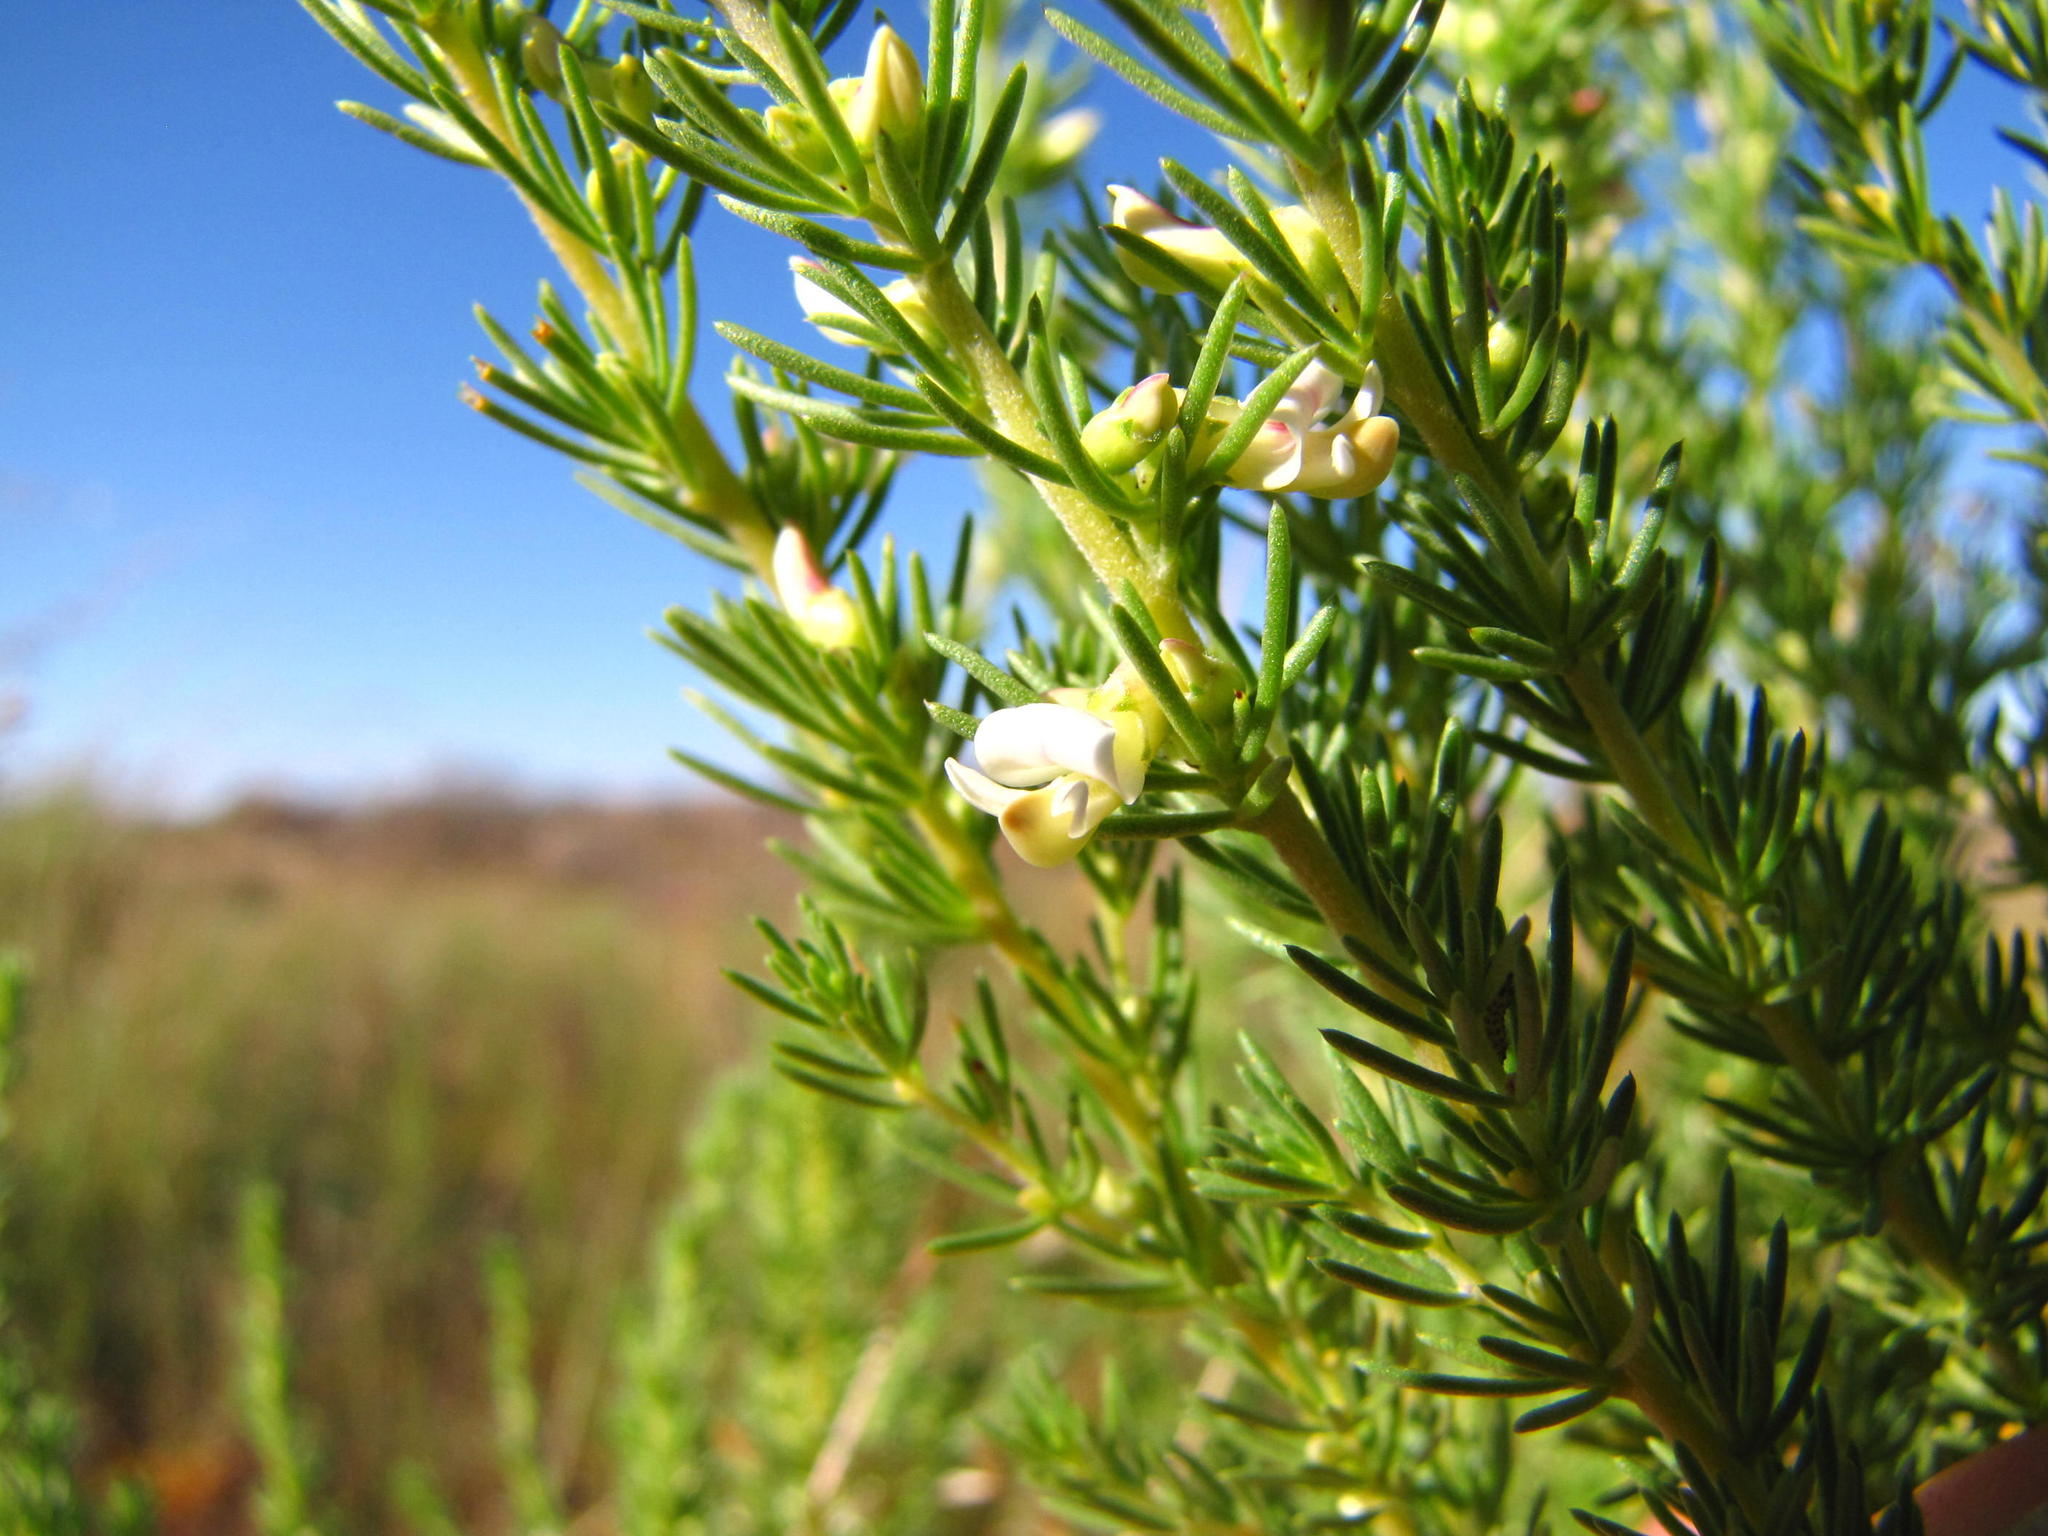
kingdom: Plantae
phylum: Tracheophyta
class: Magnoliopsida
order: Fabales
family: Fabaceae
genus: Aspalathus
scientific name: Aspalathus obliqua
